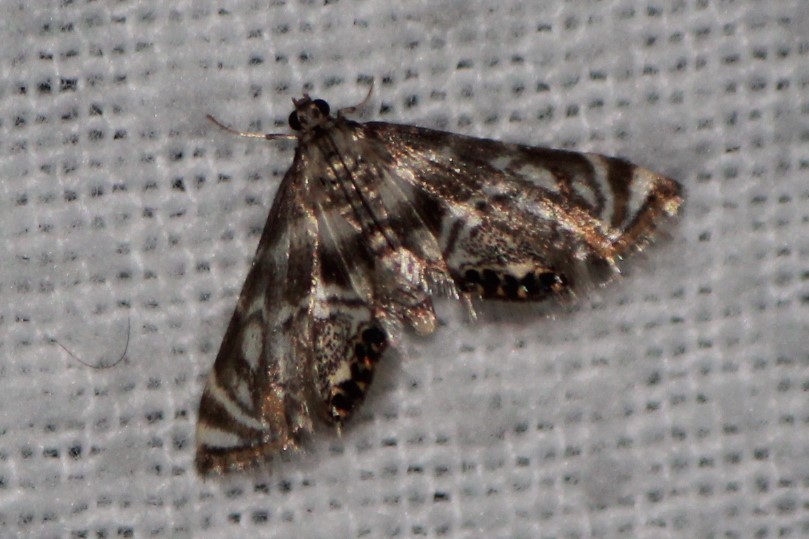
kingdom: Animalia
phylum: Arthropoda
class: Insecta
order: Lepidoptera
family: Crambidae
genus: Petrophila
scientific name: Petrophila canadensis
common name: Canadian petrophila
